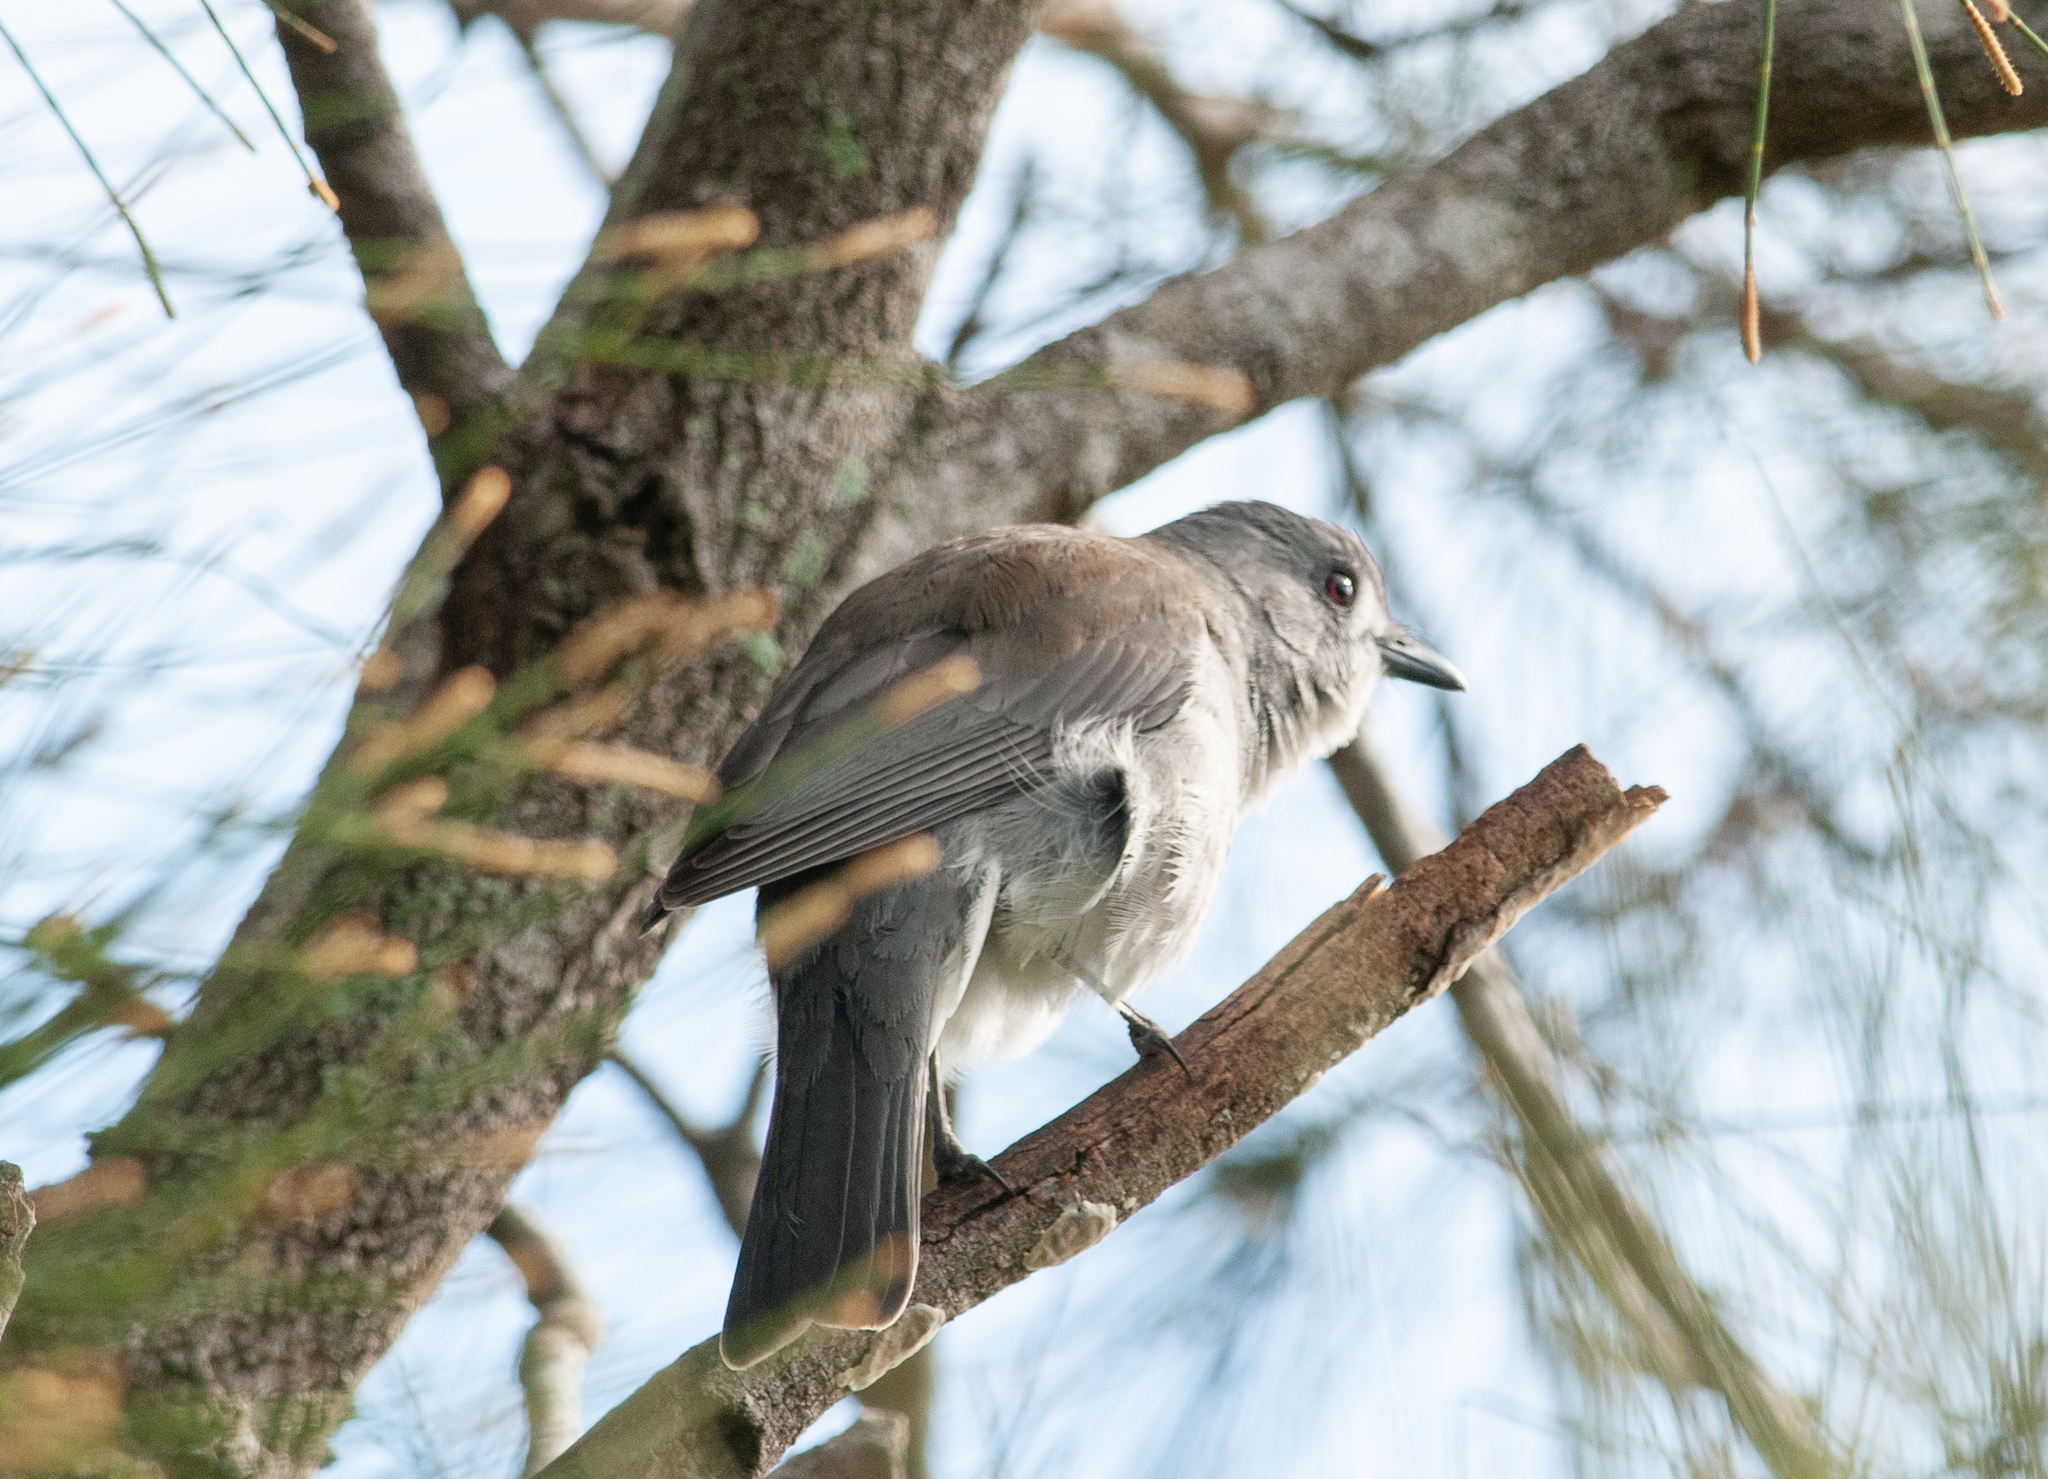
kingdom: Animalia
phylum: Chordata
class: Aves
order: Passeriformes
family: Pachycephalidae
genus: Colluricincla
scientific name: Colluricincla harmonica
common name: Grey shrikethrush
